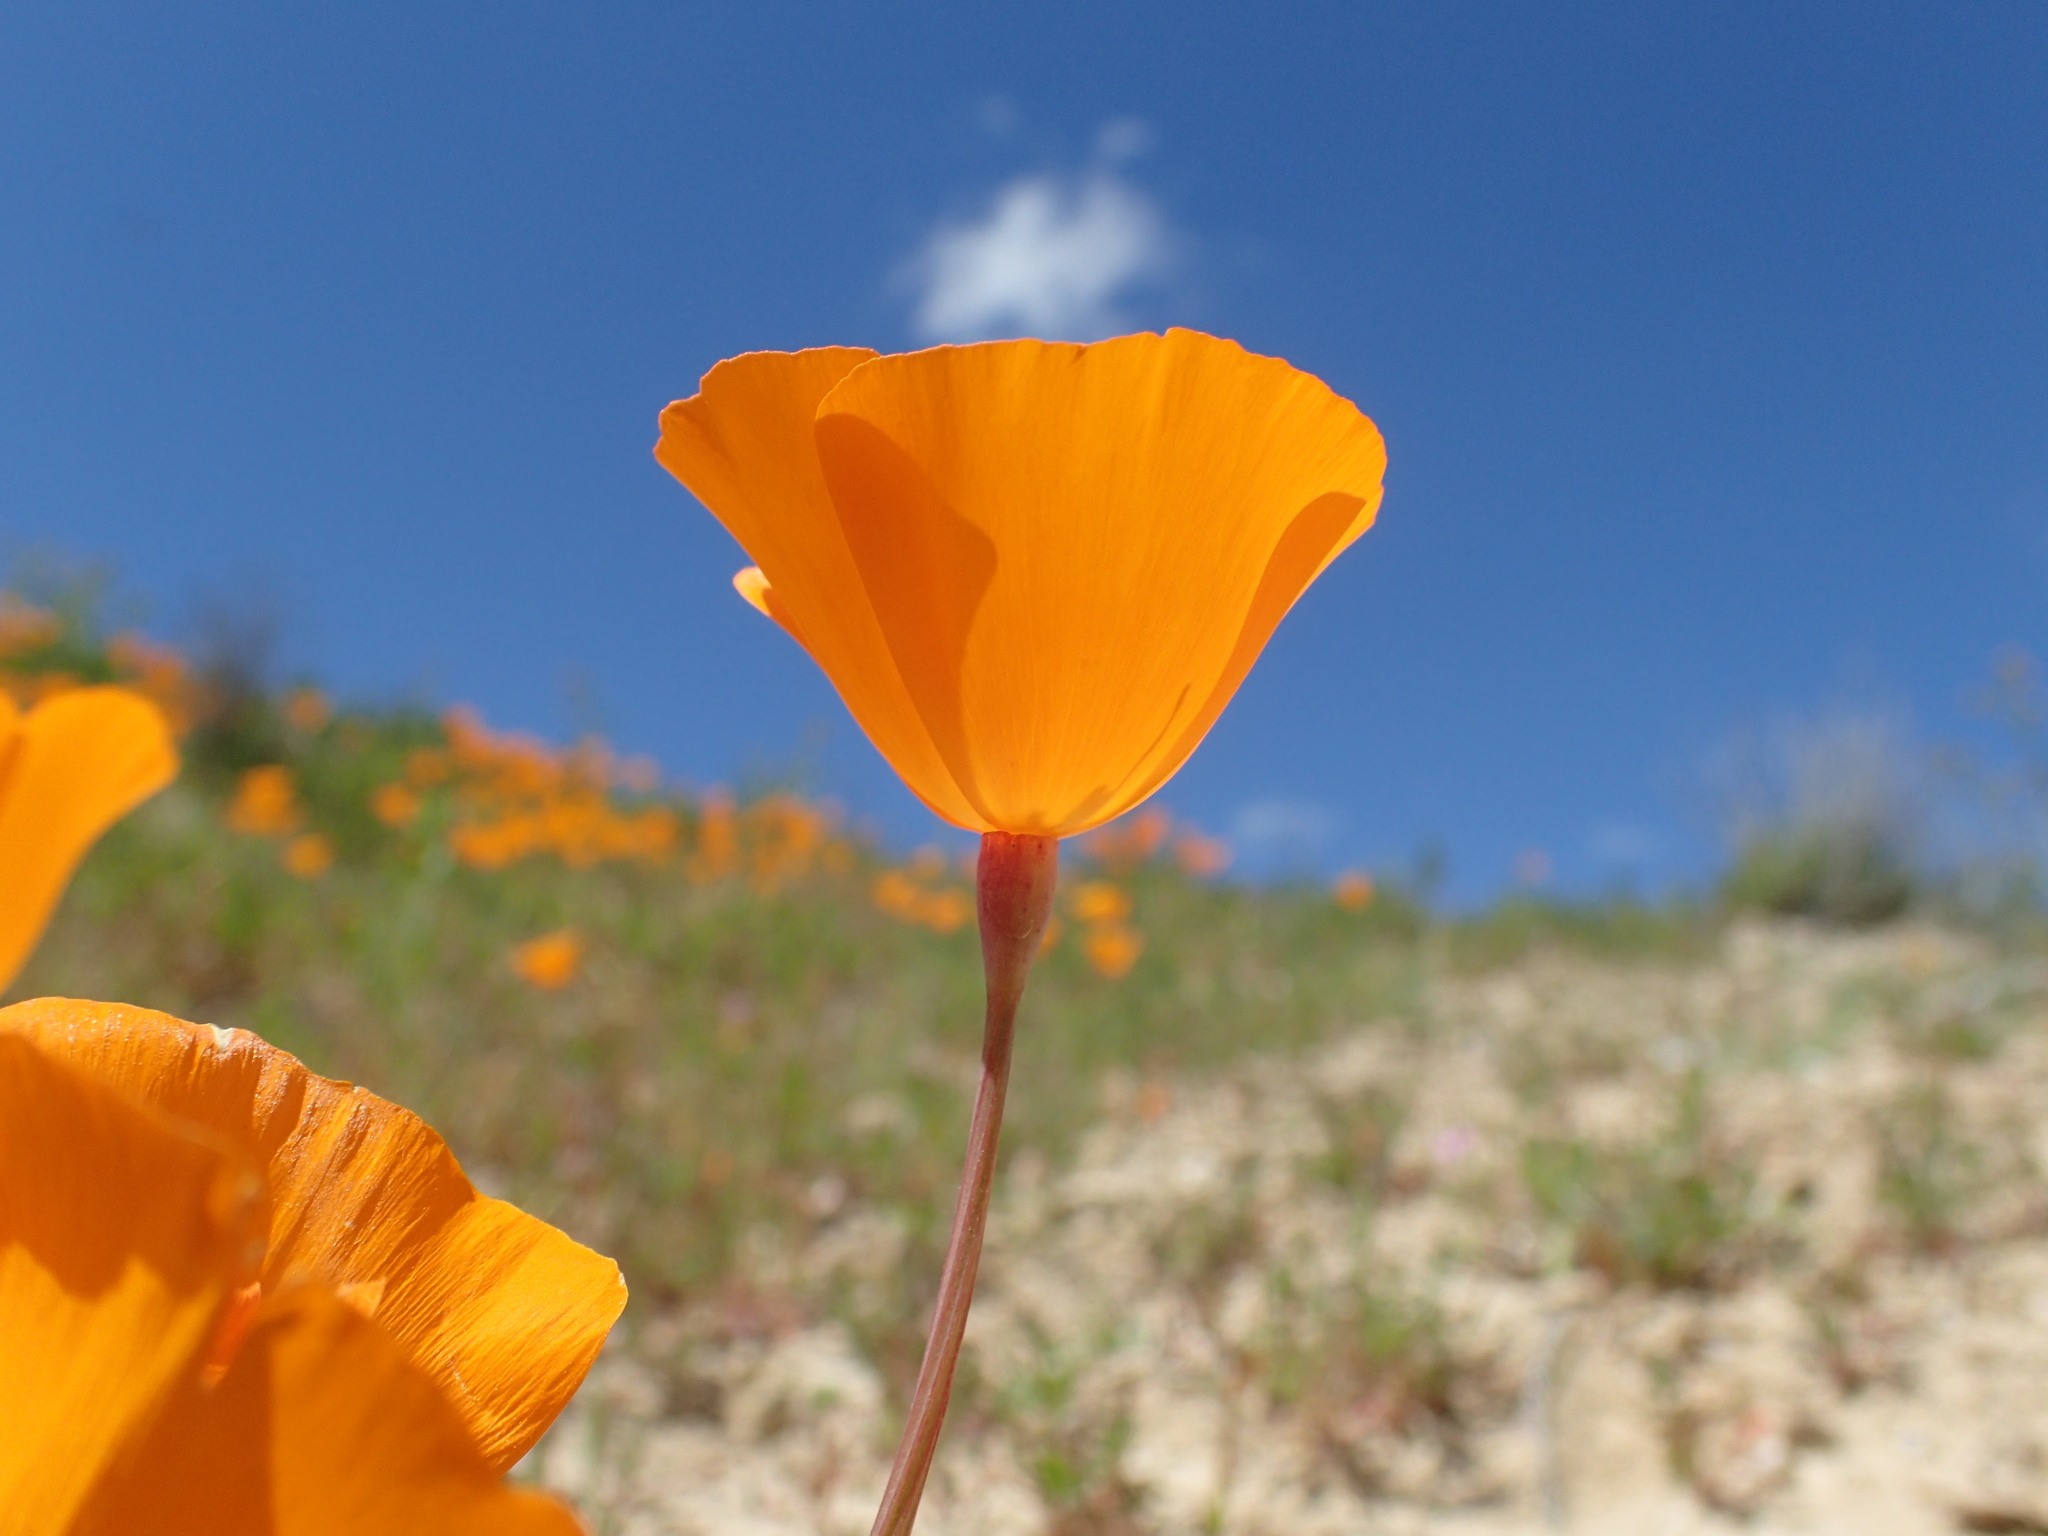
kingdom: Plantae
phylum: Tracheophyta
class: Magnoliopsida
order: Ranunculales
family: Papaveraceae
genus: Eschscholzia
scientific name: Eschscholzia lemmonii
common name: Lemmon's poppy
